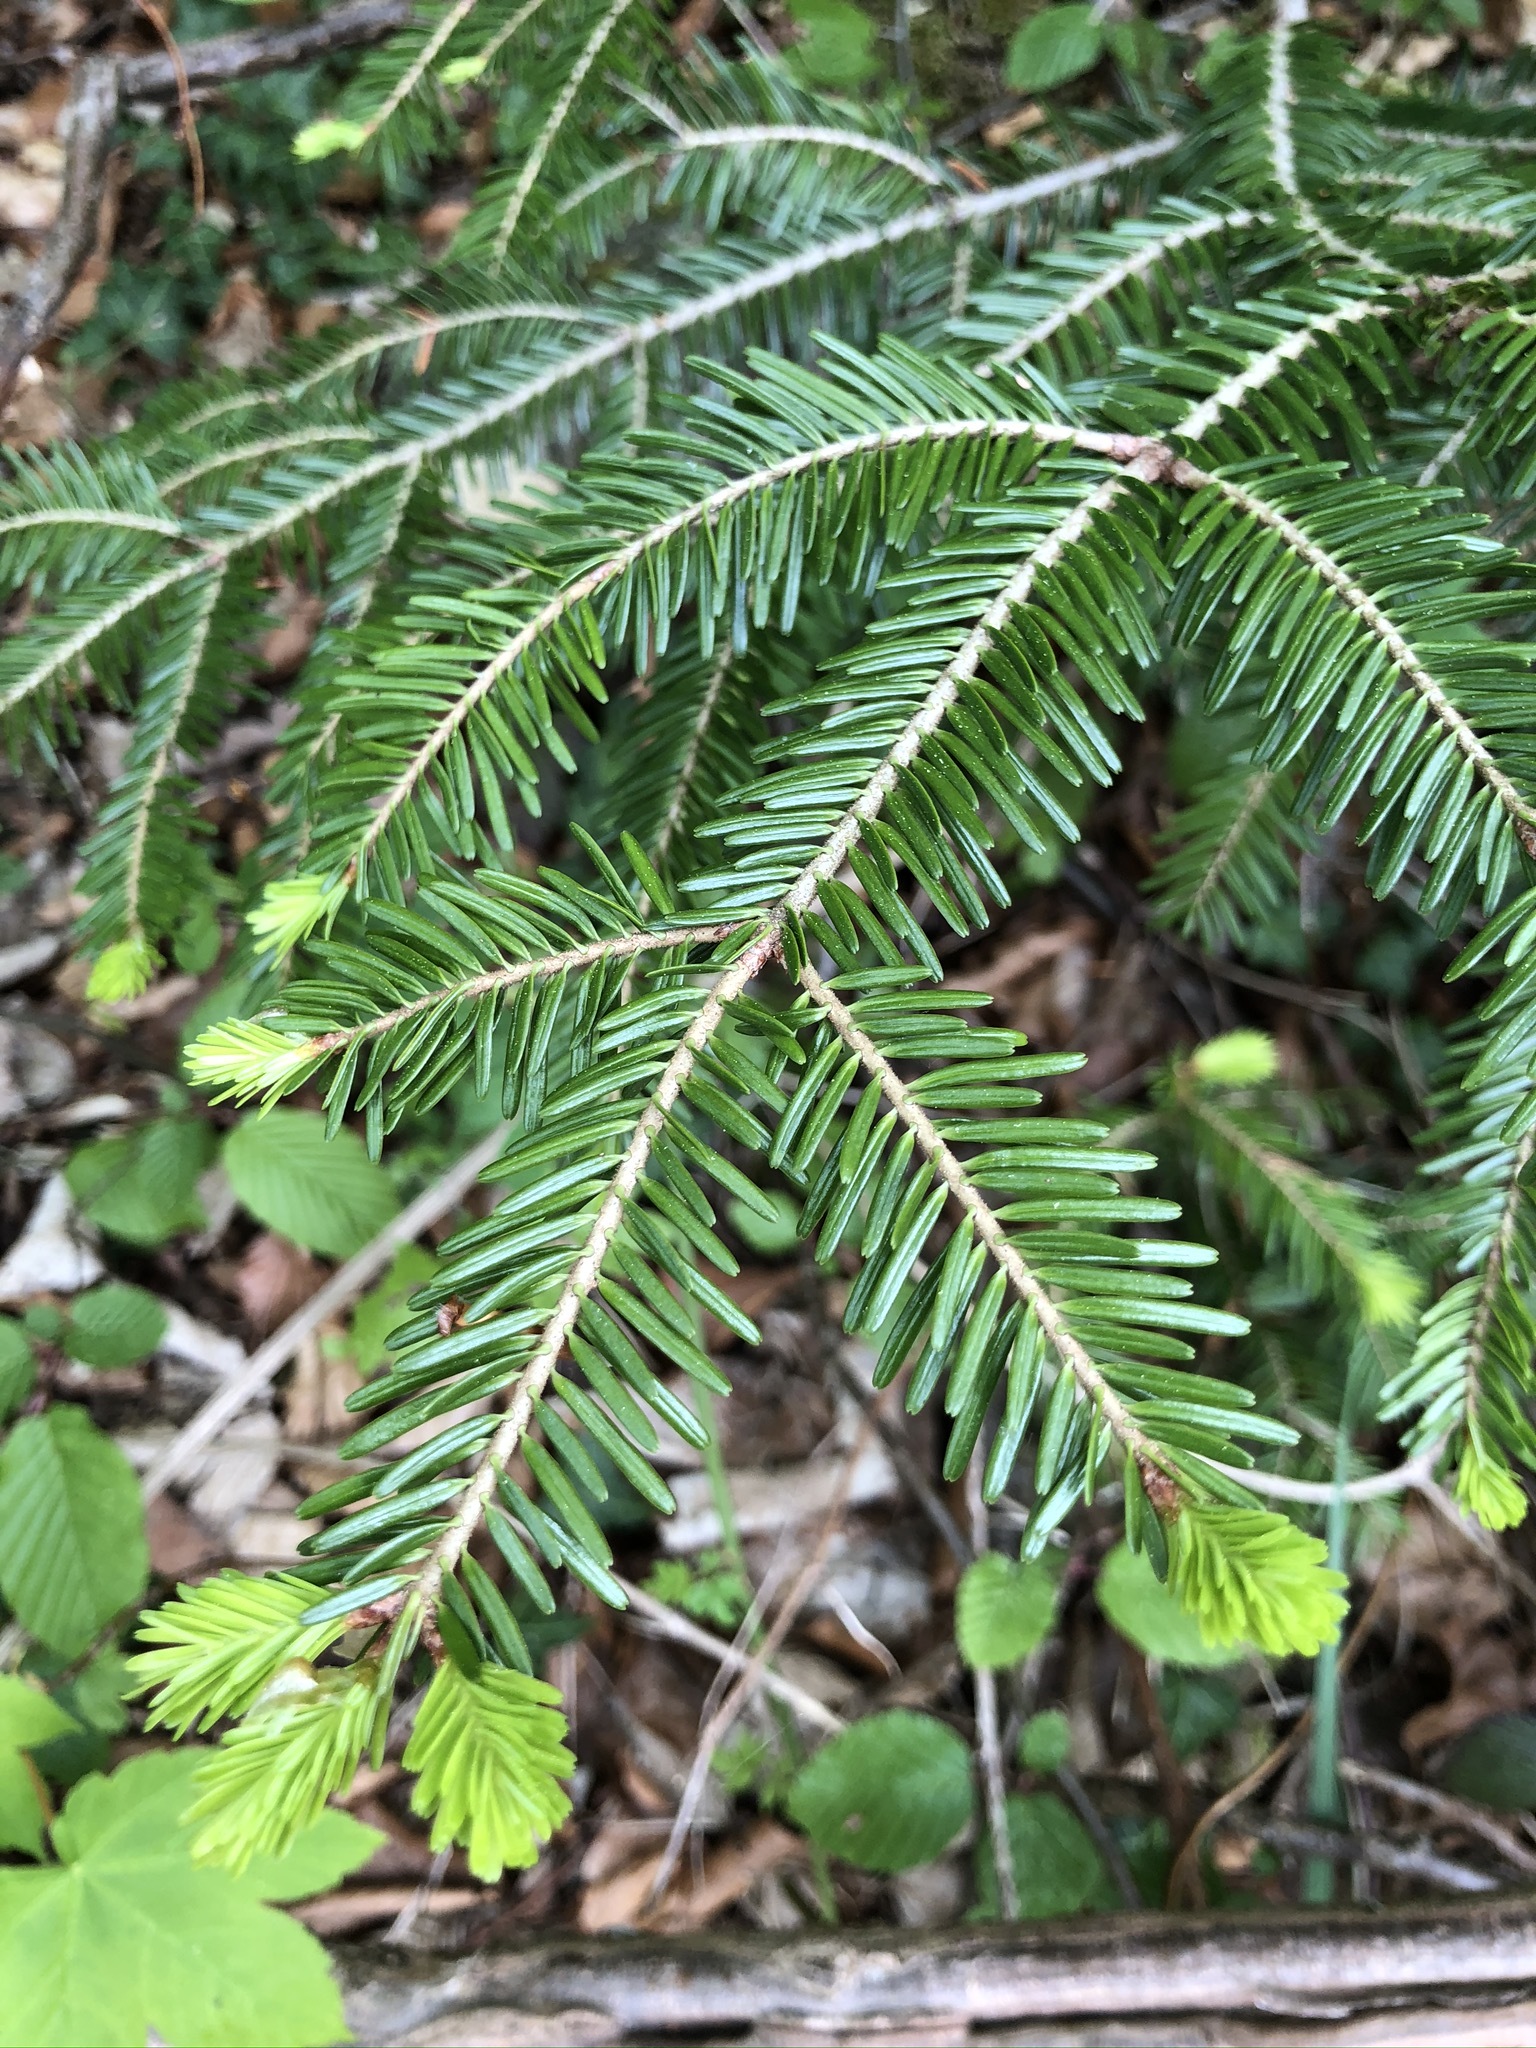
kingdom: Plantae
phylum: Tracheophyta
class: Pinopsida
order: Pinales
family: Pinaceae
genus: Abies
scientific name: Abies alba
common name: Silver fir
